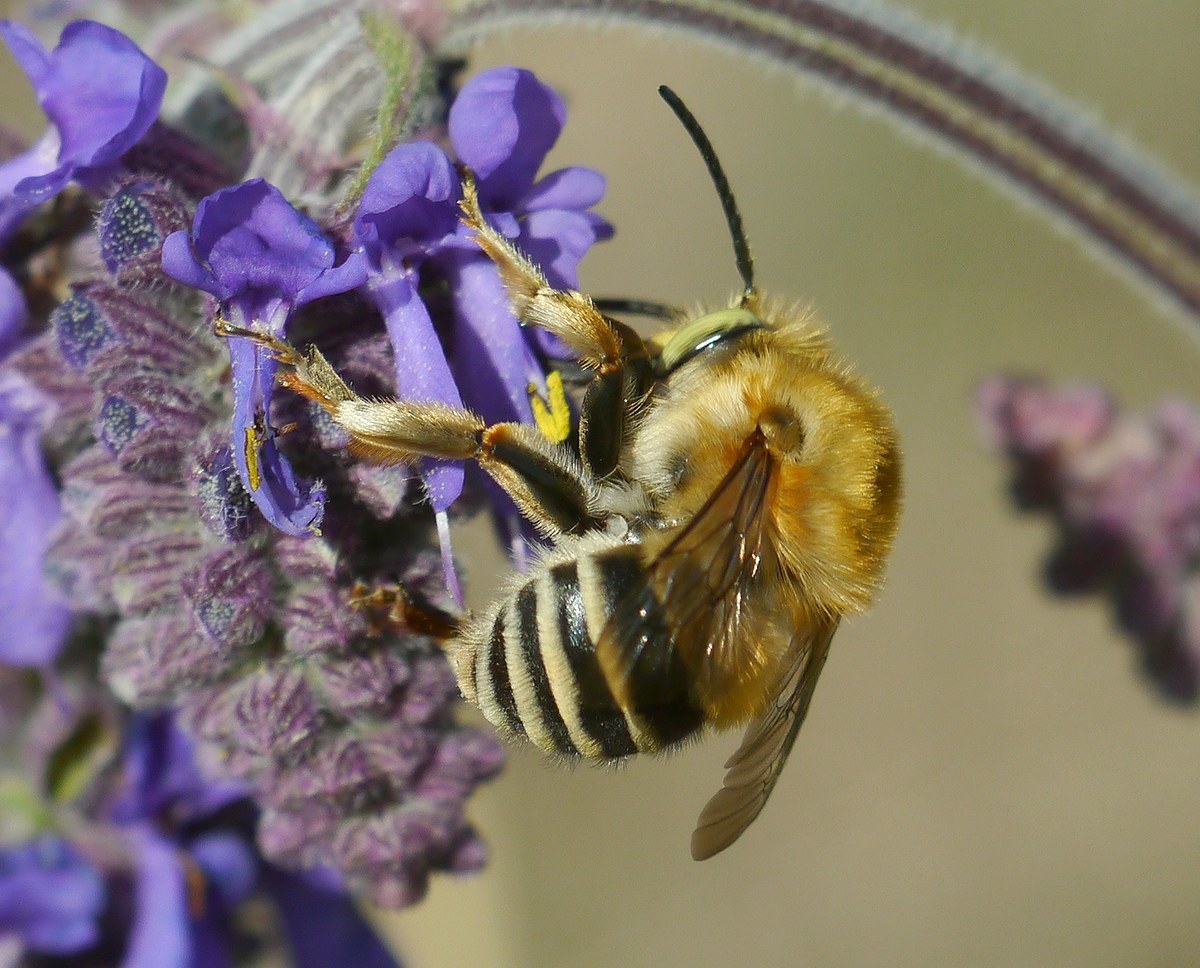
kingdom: Animalia
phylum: Arthropoda
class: Insecta
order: Hymenoptera
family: Apidae
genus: Habropoda
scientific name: Habropoda zonatula
